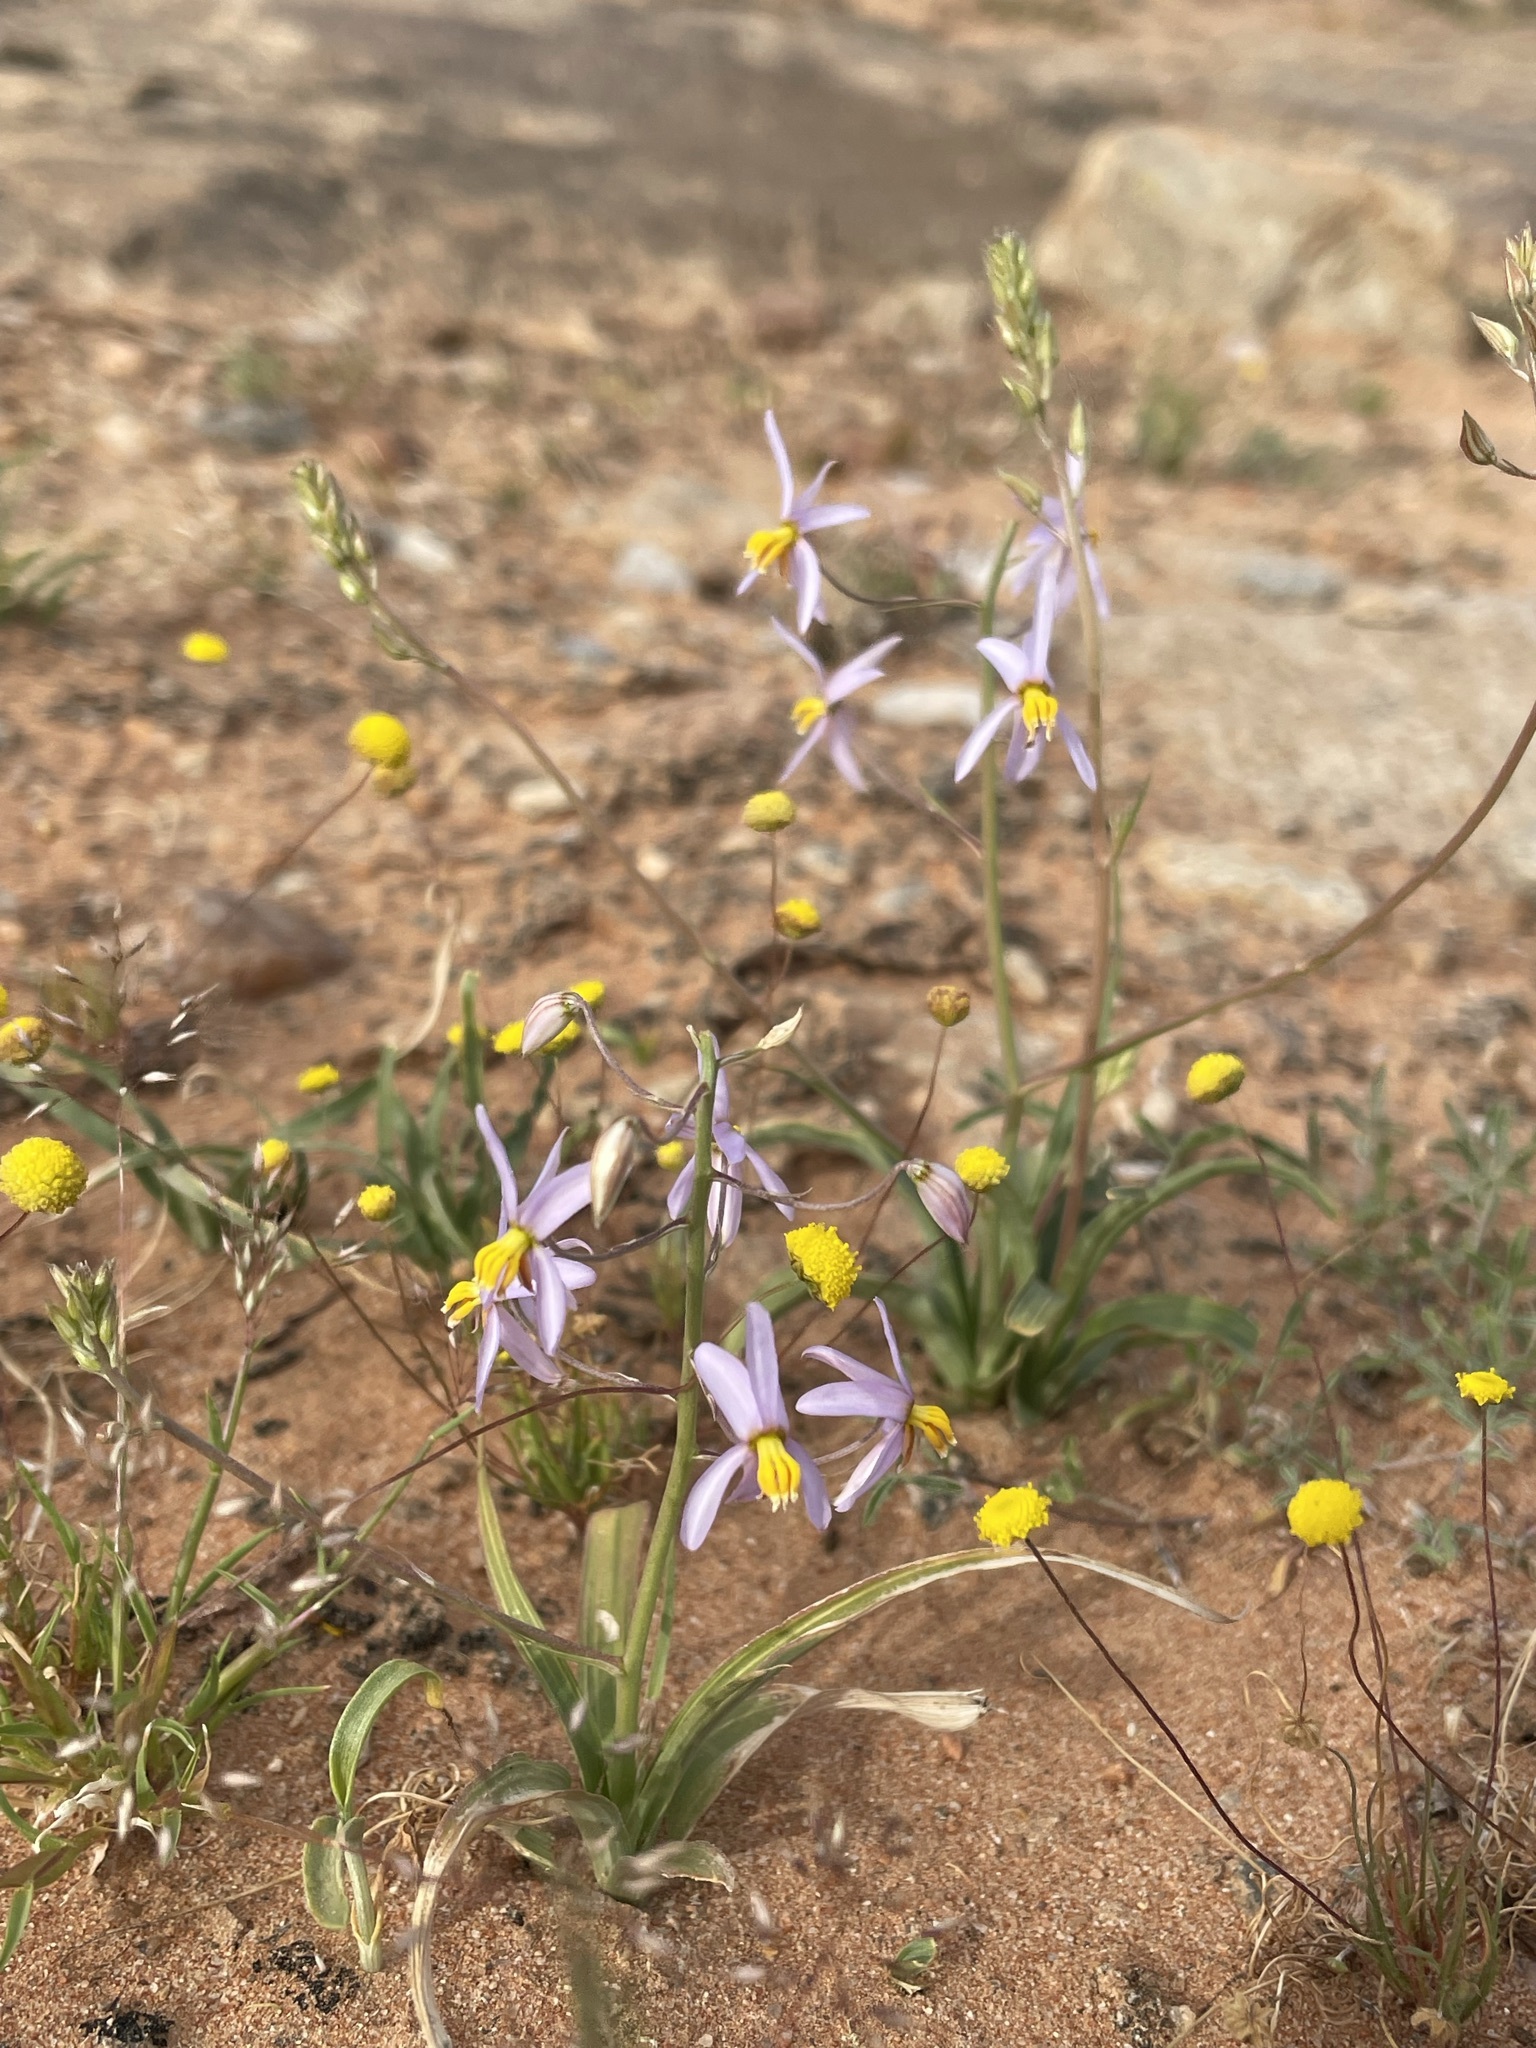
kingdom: Plantae
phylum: Tracheophyta
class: Liliopsida
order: Asparagales
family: Tecophilaeaceae
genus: Cyanella
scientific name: Cyanella hyacinthoides
